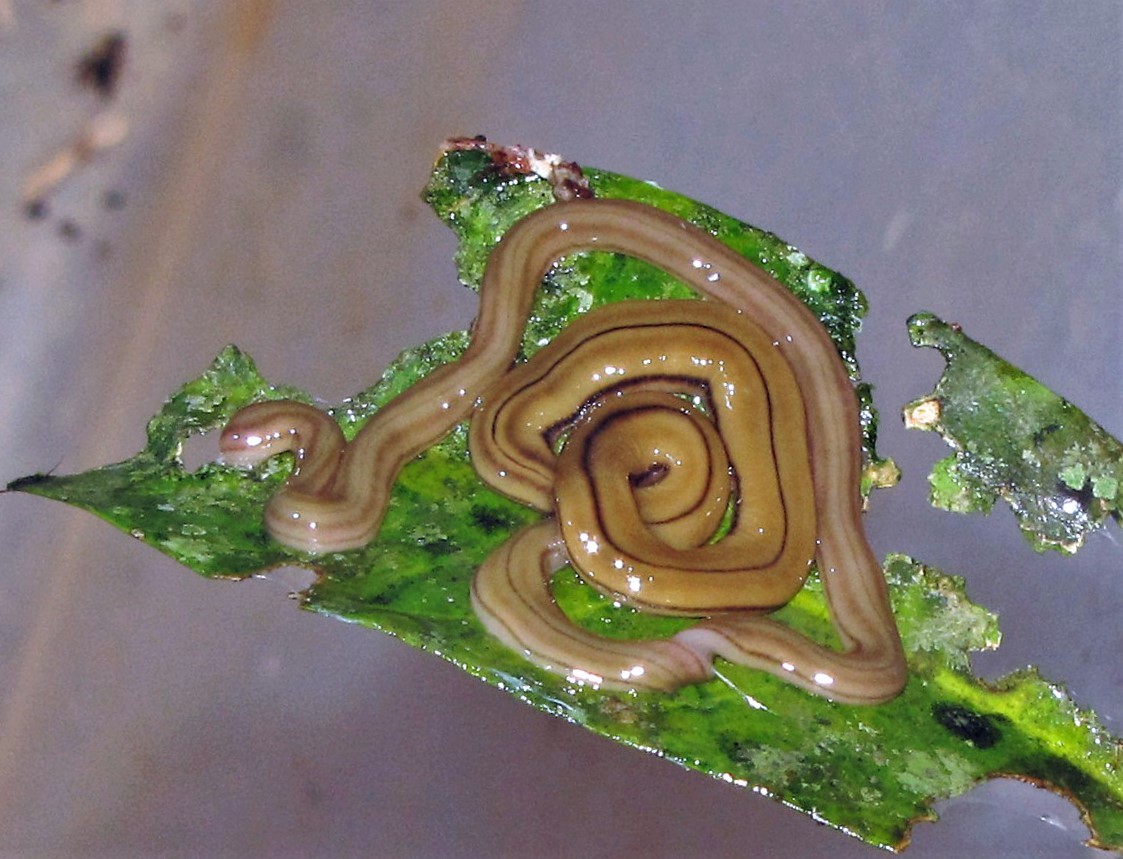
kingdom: Animalia
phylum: Platyhelminthes
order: Tricladida
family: Geoplanidae
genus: Bipalium
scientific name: Bipalium kewense
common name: Hammerhead flatworm
